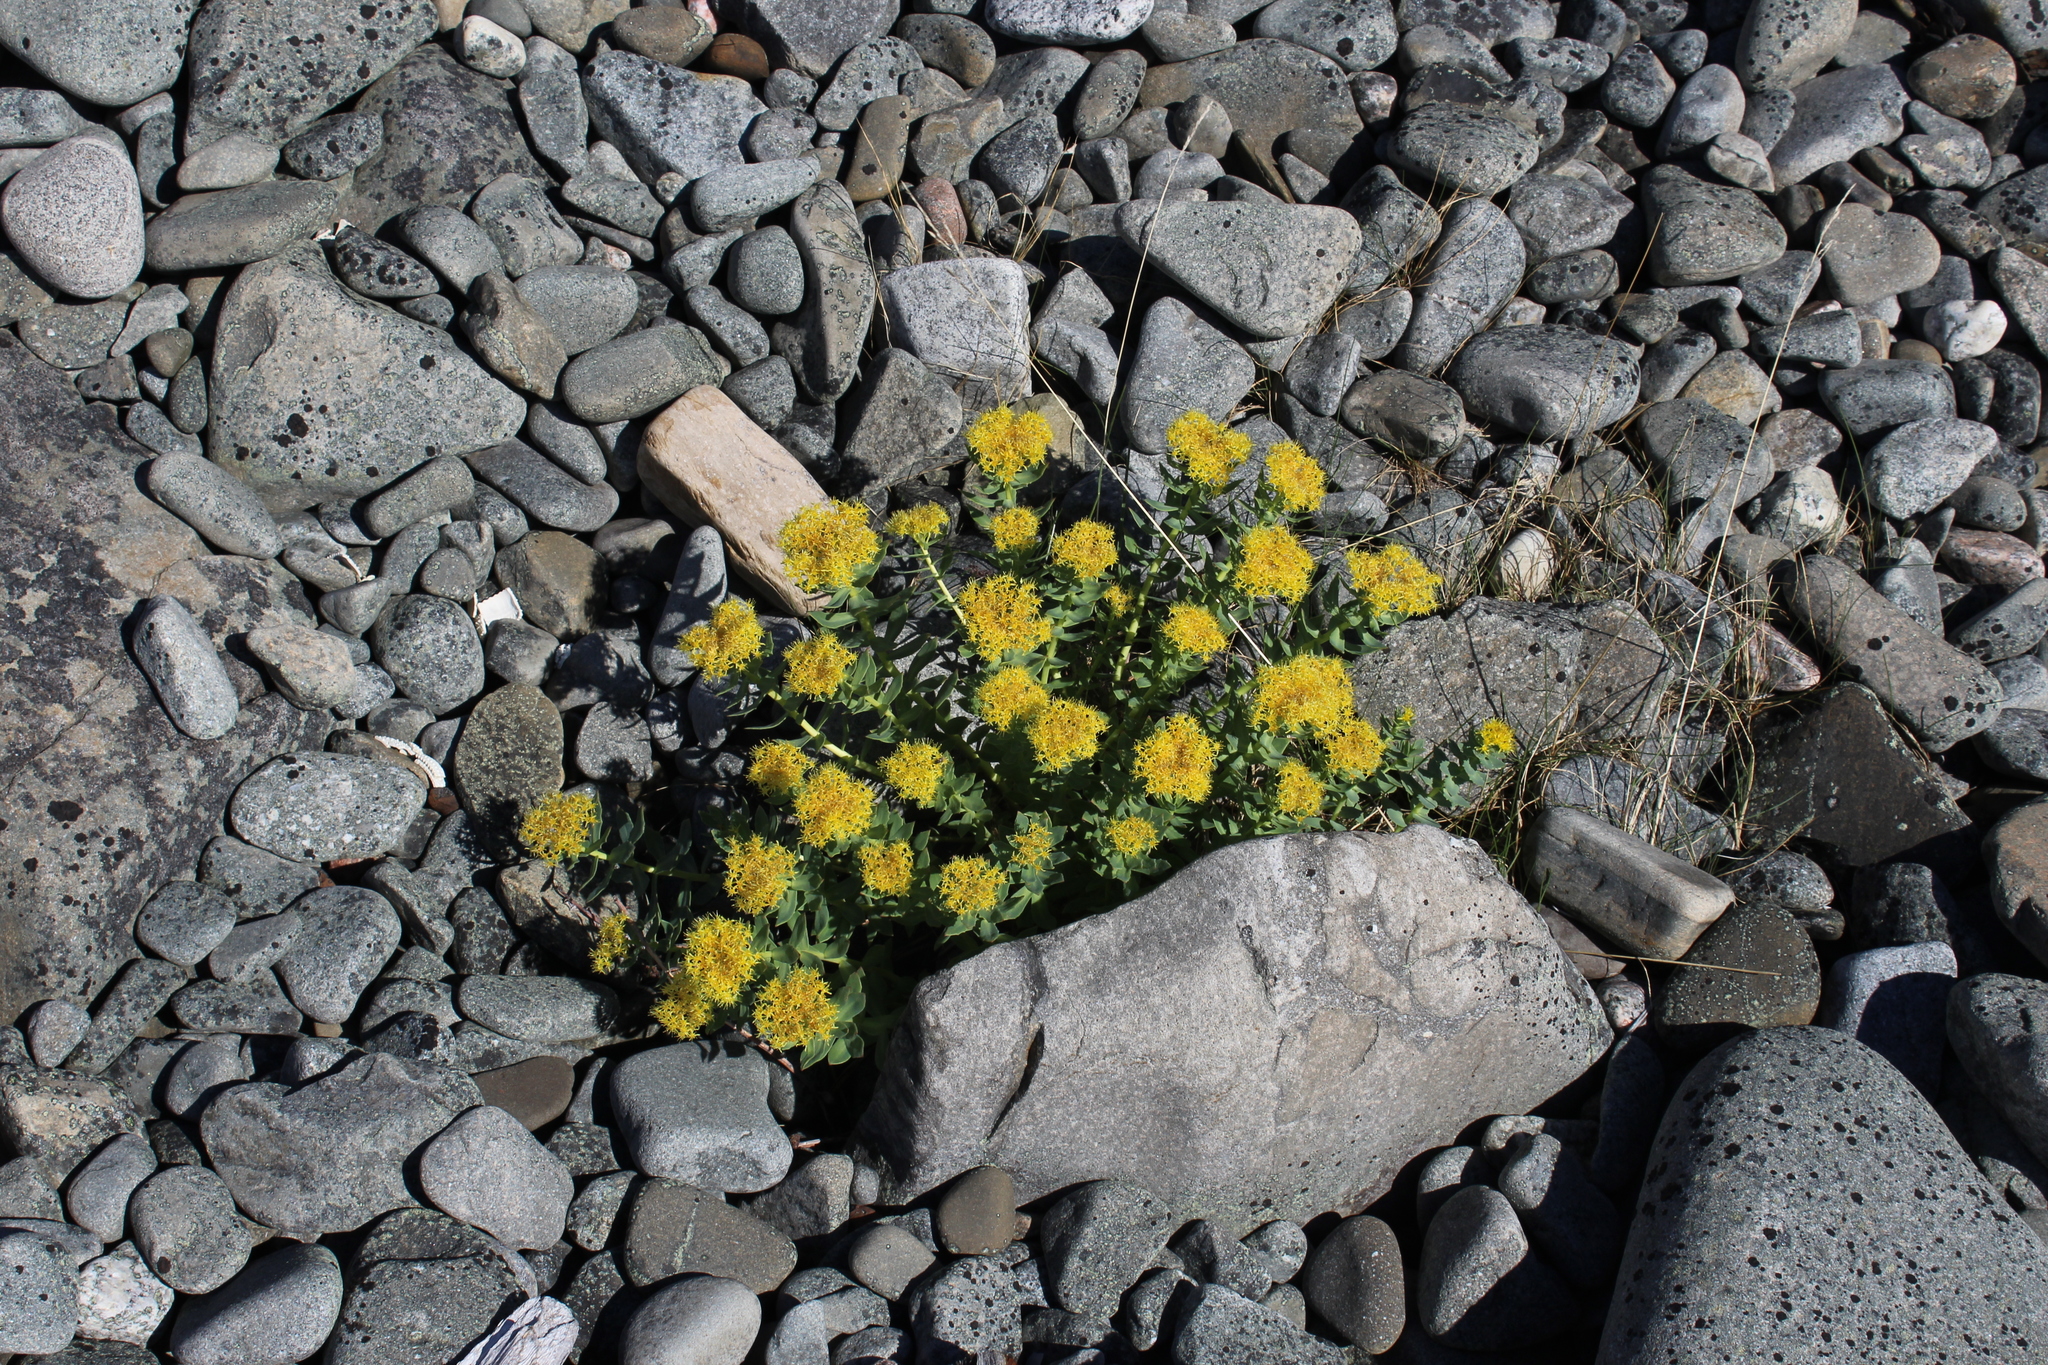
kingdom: Plantae
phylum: Tracheophyta
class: Magnoliopsida
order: Saxifragales
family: Crassulaceae
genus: Rhodiola
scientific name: Rhodiola rosea
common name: Roseroot
